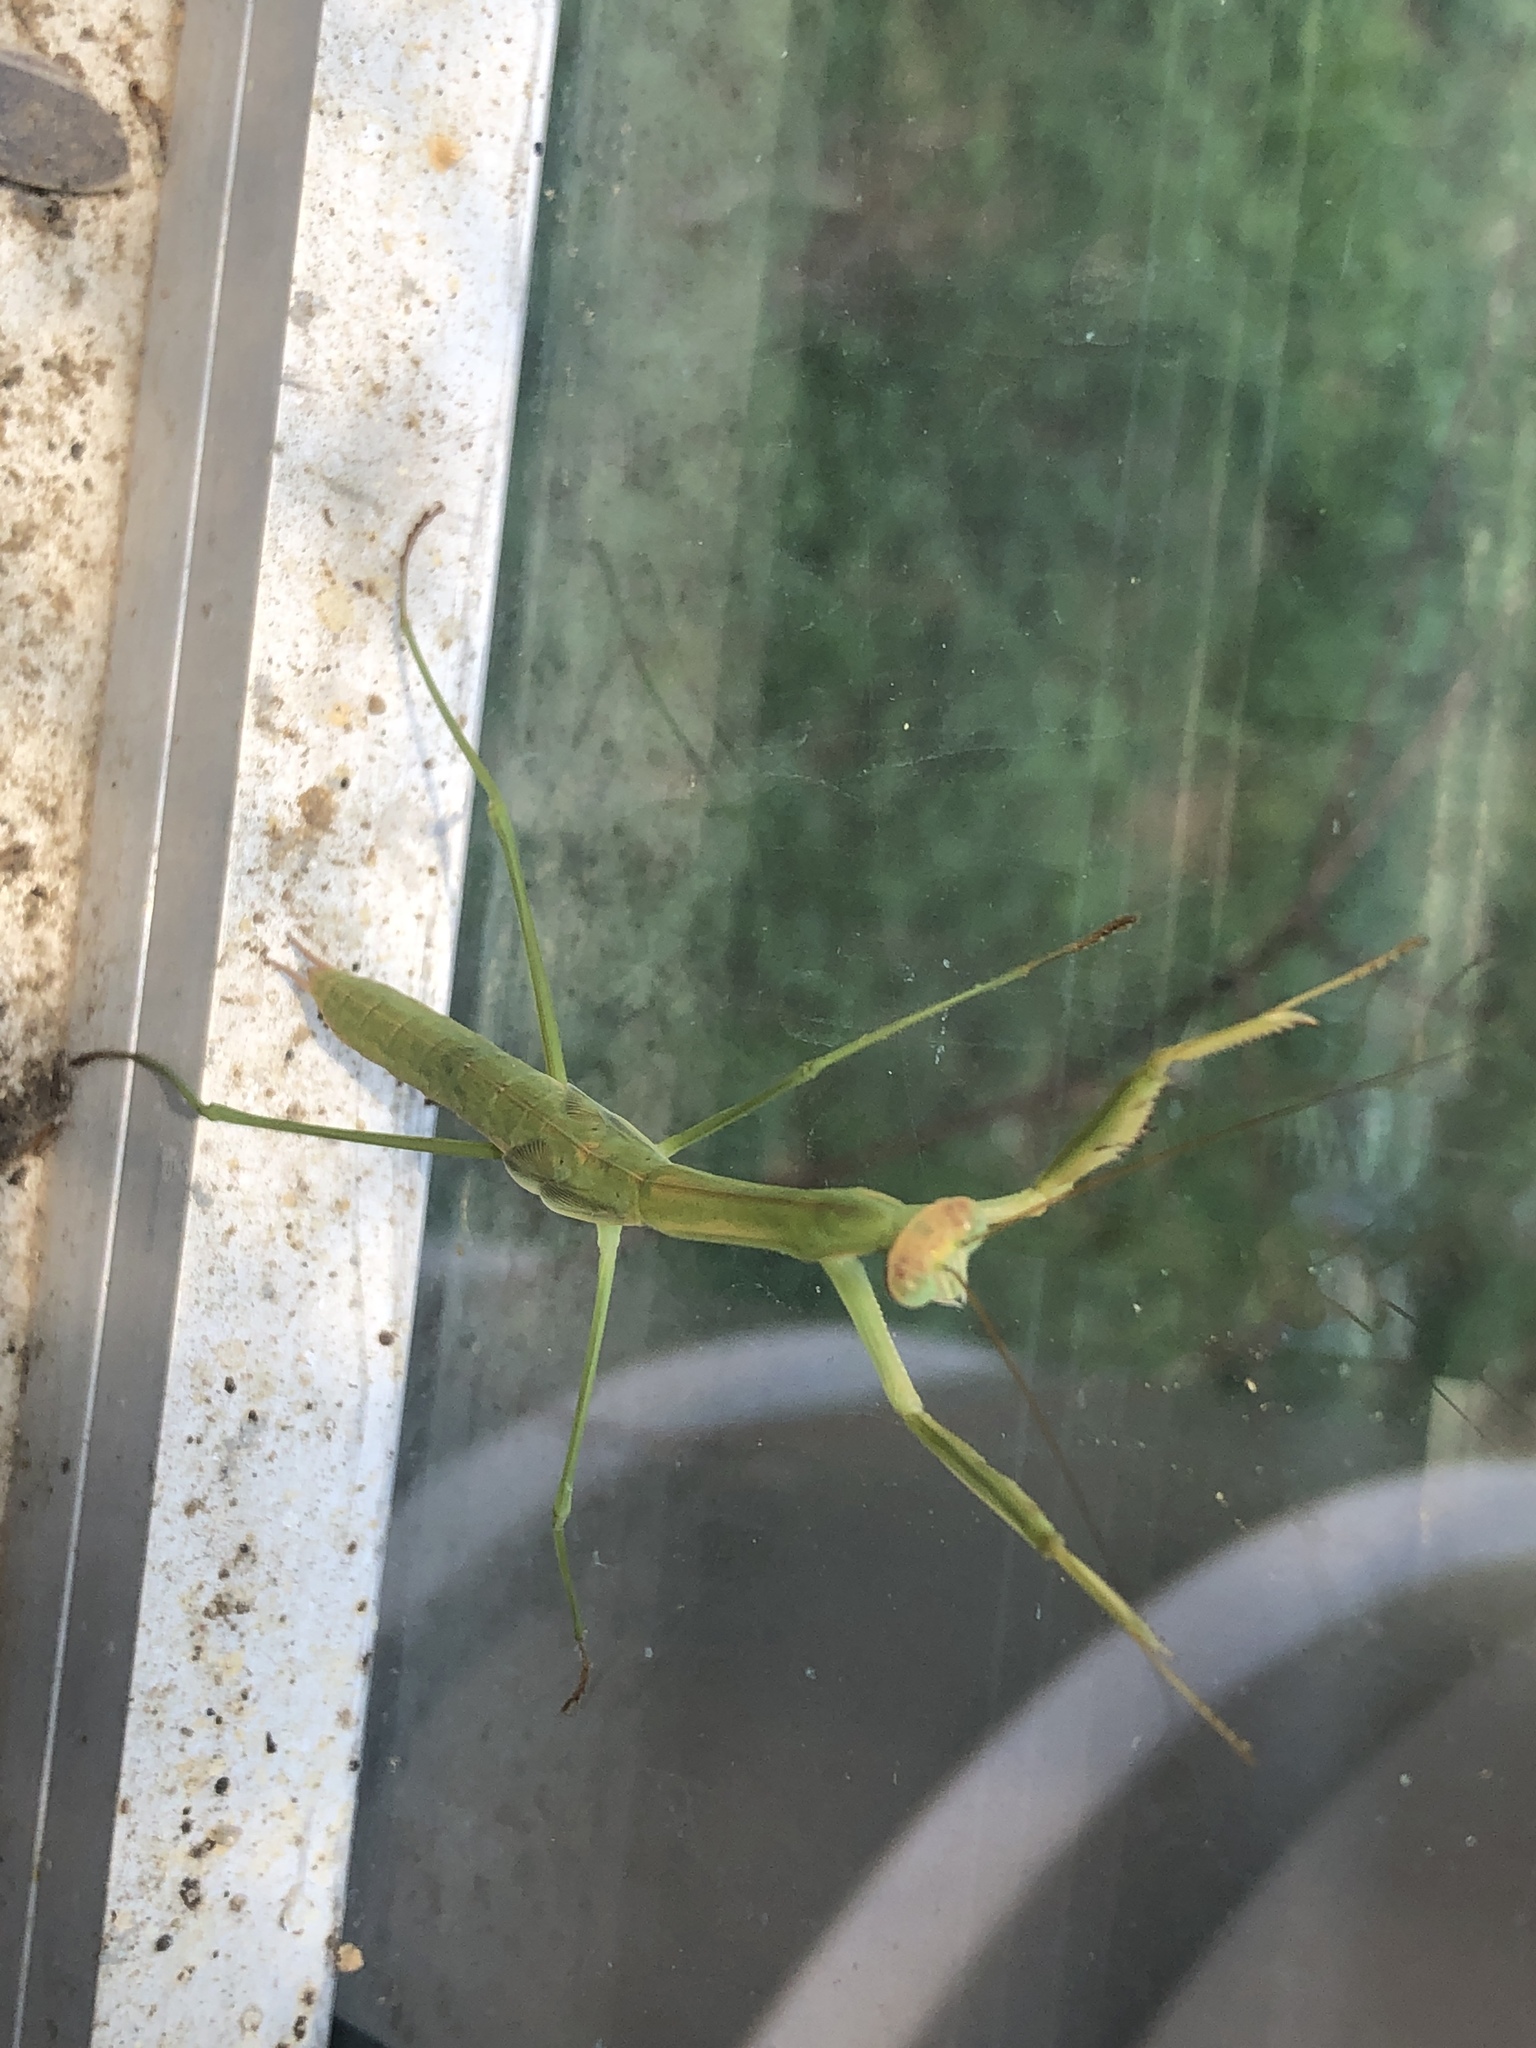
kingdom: Animalia
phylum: Arthropoda
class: Insecta
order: Mantodea
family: Mantidae
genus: Tenodera
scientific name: Tenodera sinensis
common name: Chinese mantis
